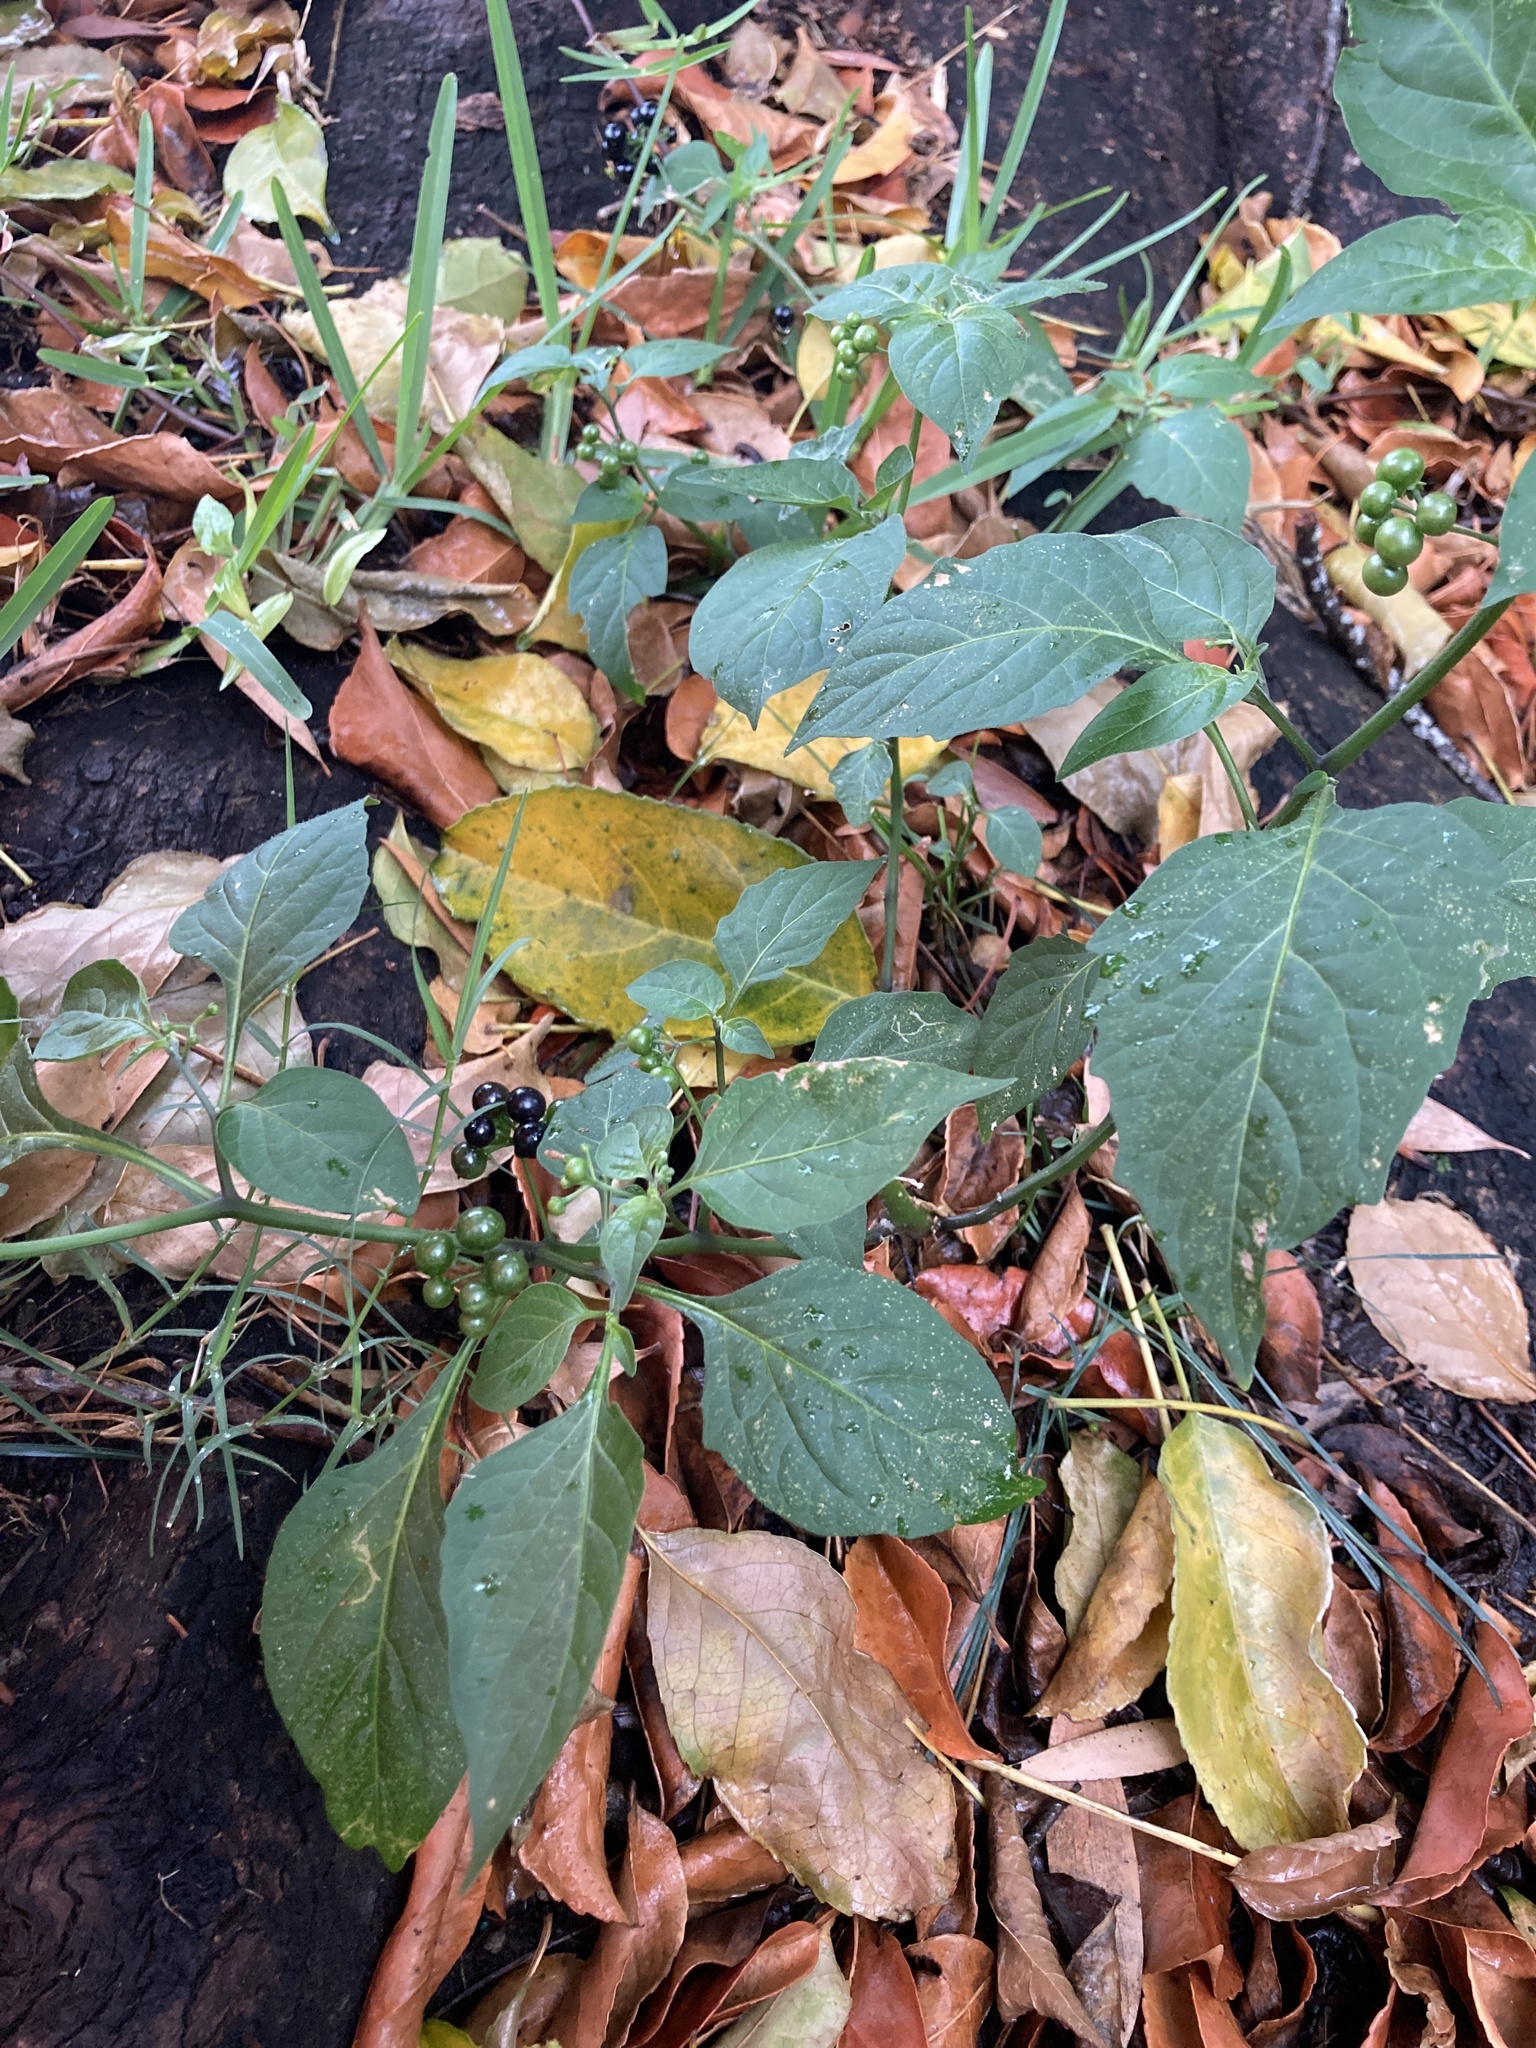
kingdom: Plantae
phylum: Tracheophyta
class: Magnoliopsida
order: Solanales
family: Solanaceae
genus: Solanum
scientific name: Solanum americanum
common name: American black nightshade
